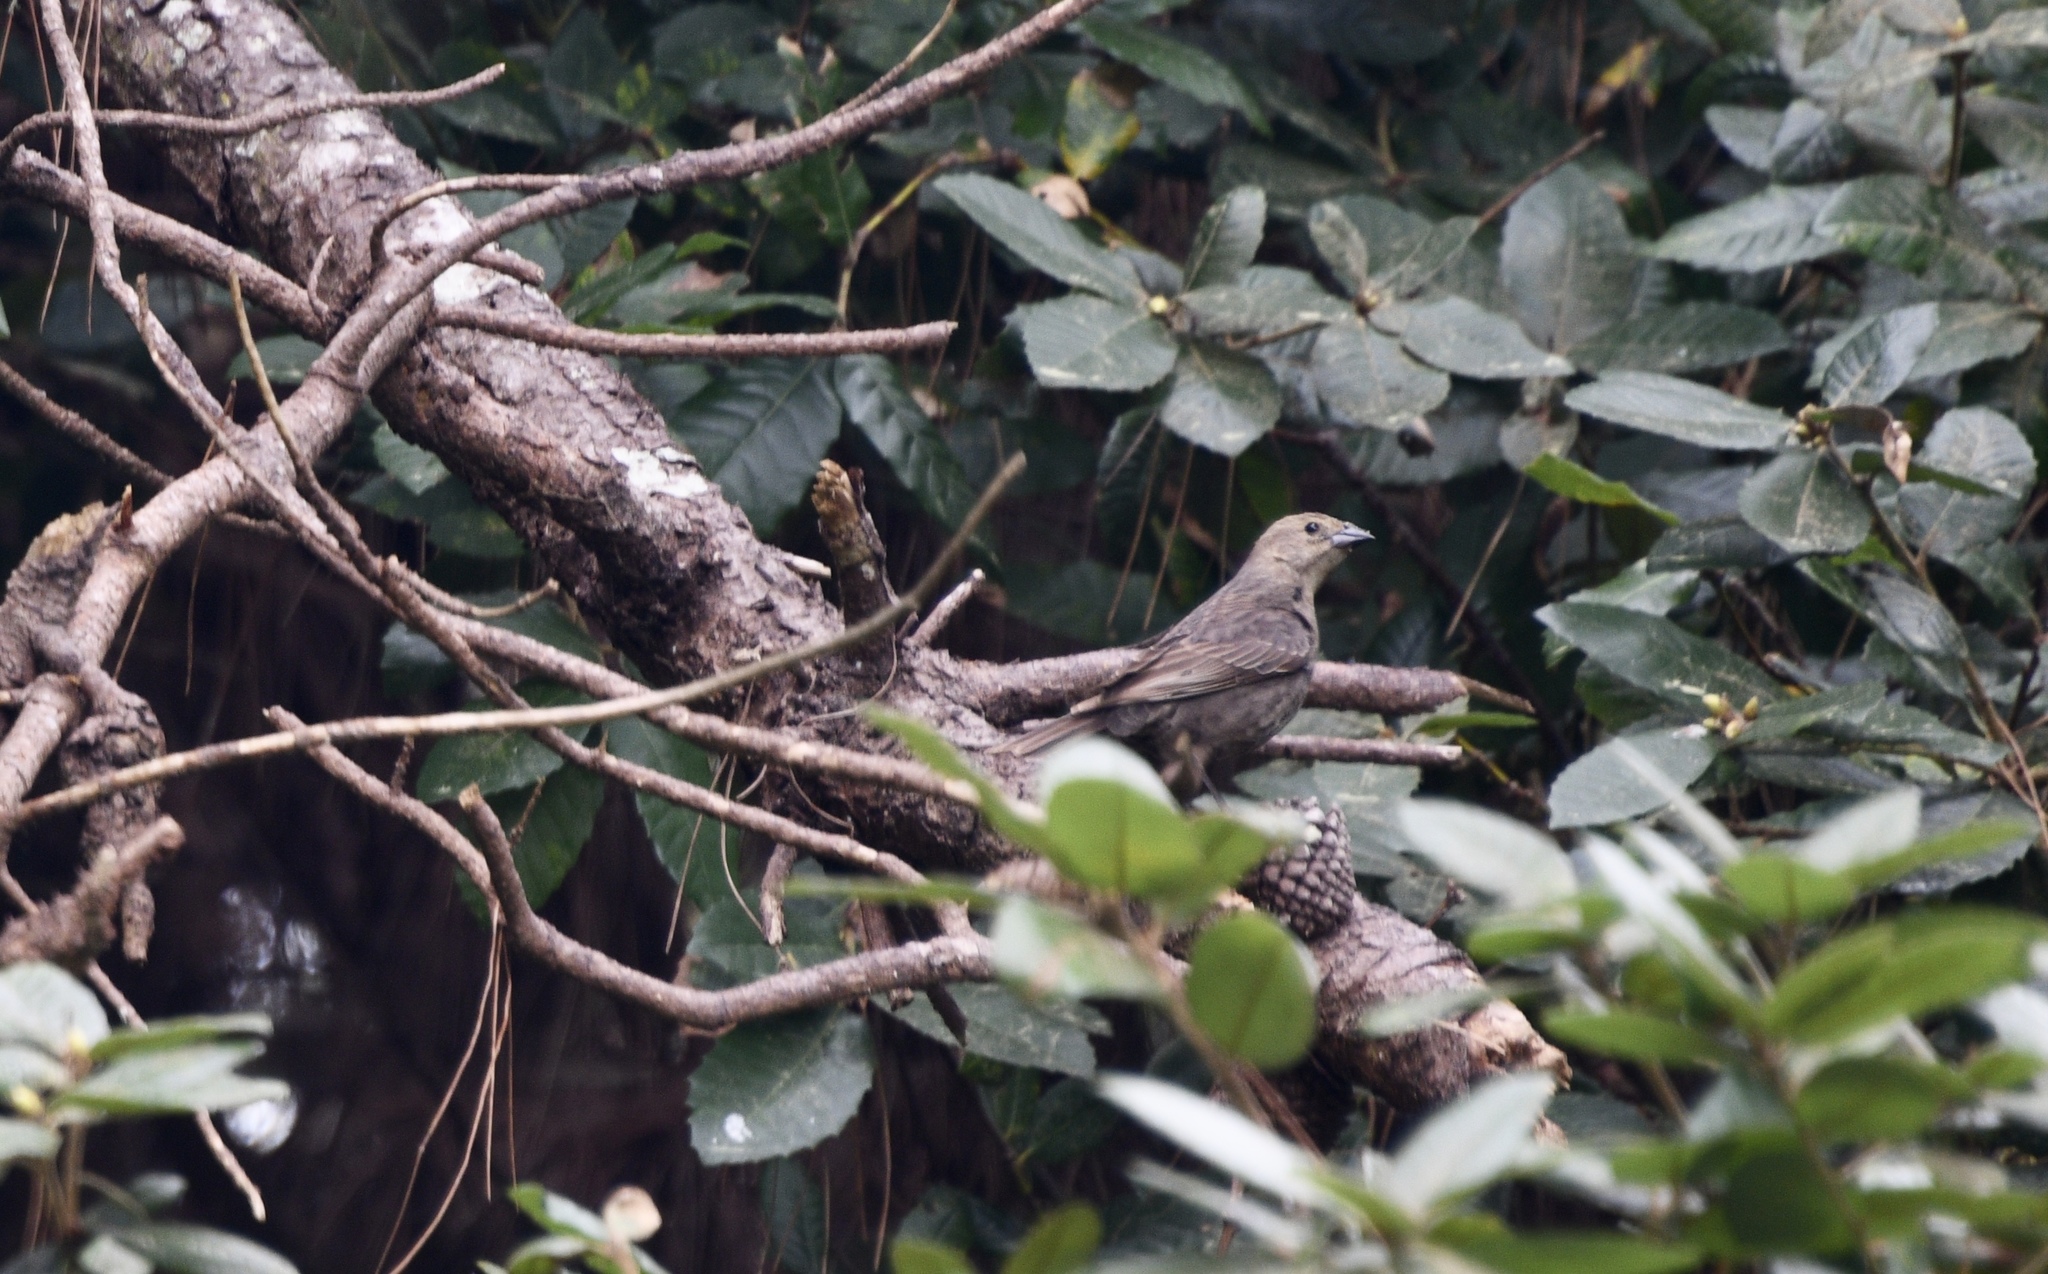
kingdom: Animalia
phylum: Chordata
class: Aves
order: Passeriformes
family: Icteridae
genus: Molothrus
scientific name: Molothrus ater
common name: Brown-headed cowbird
